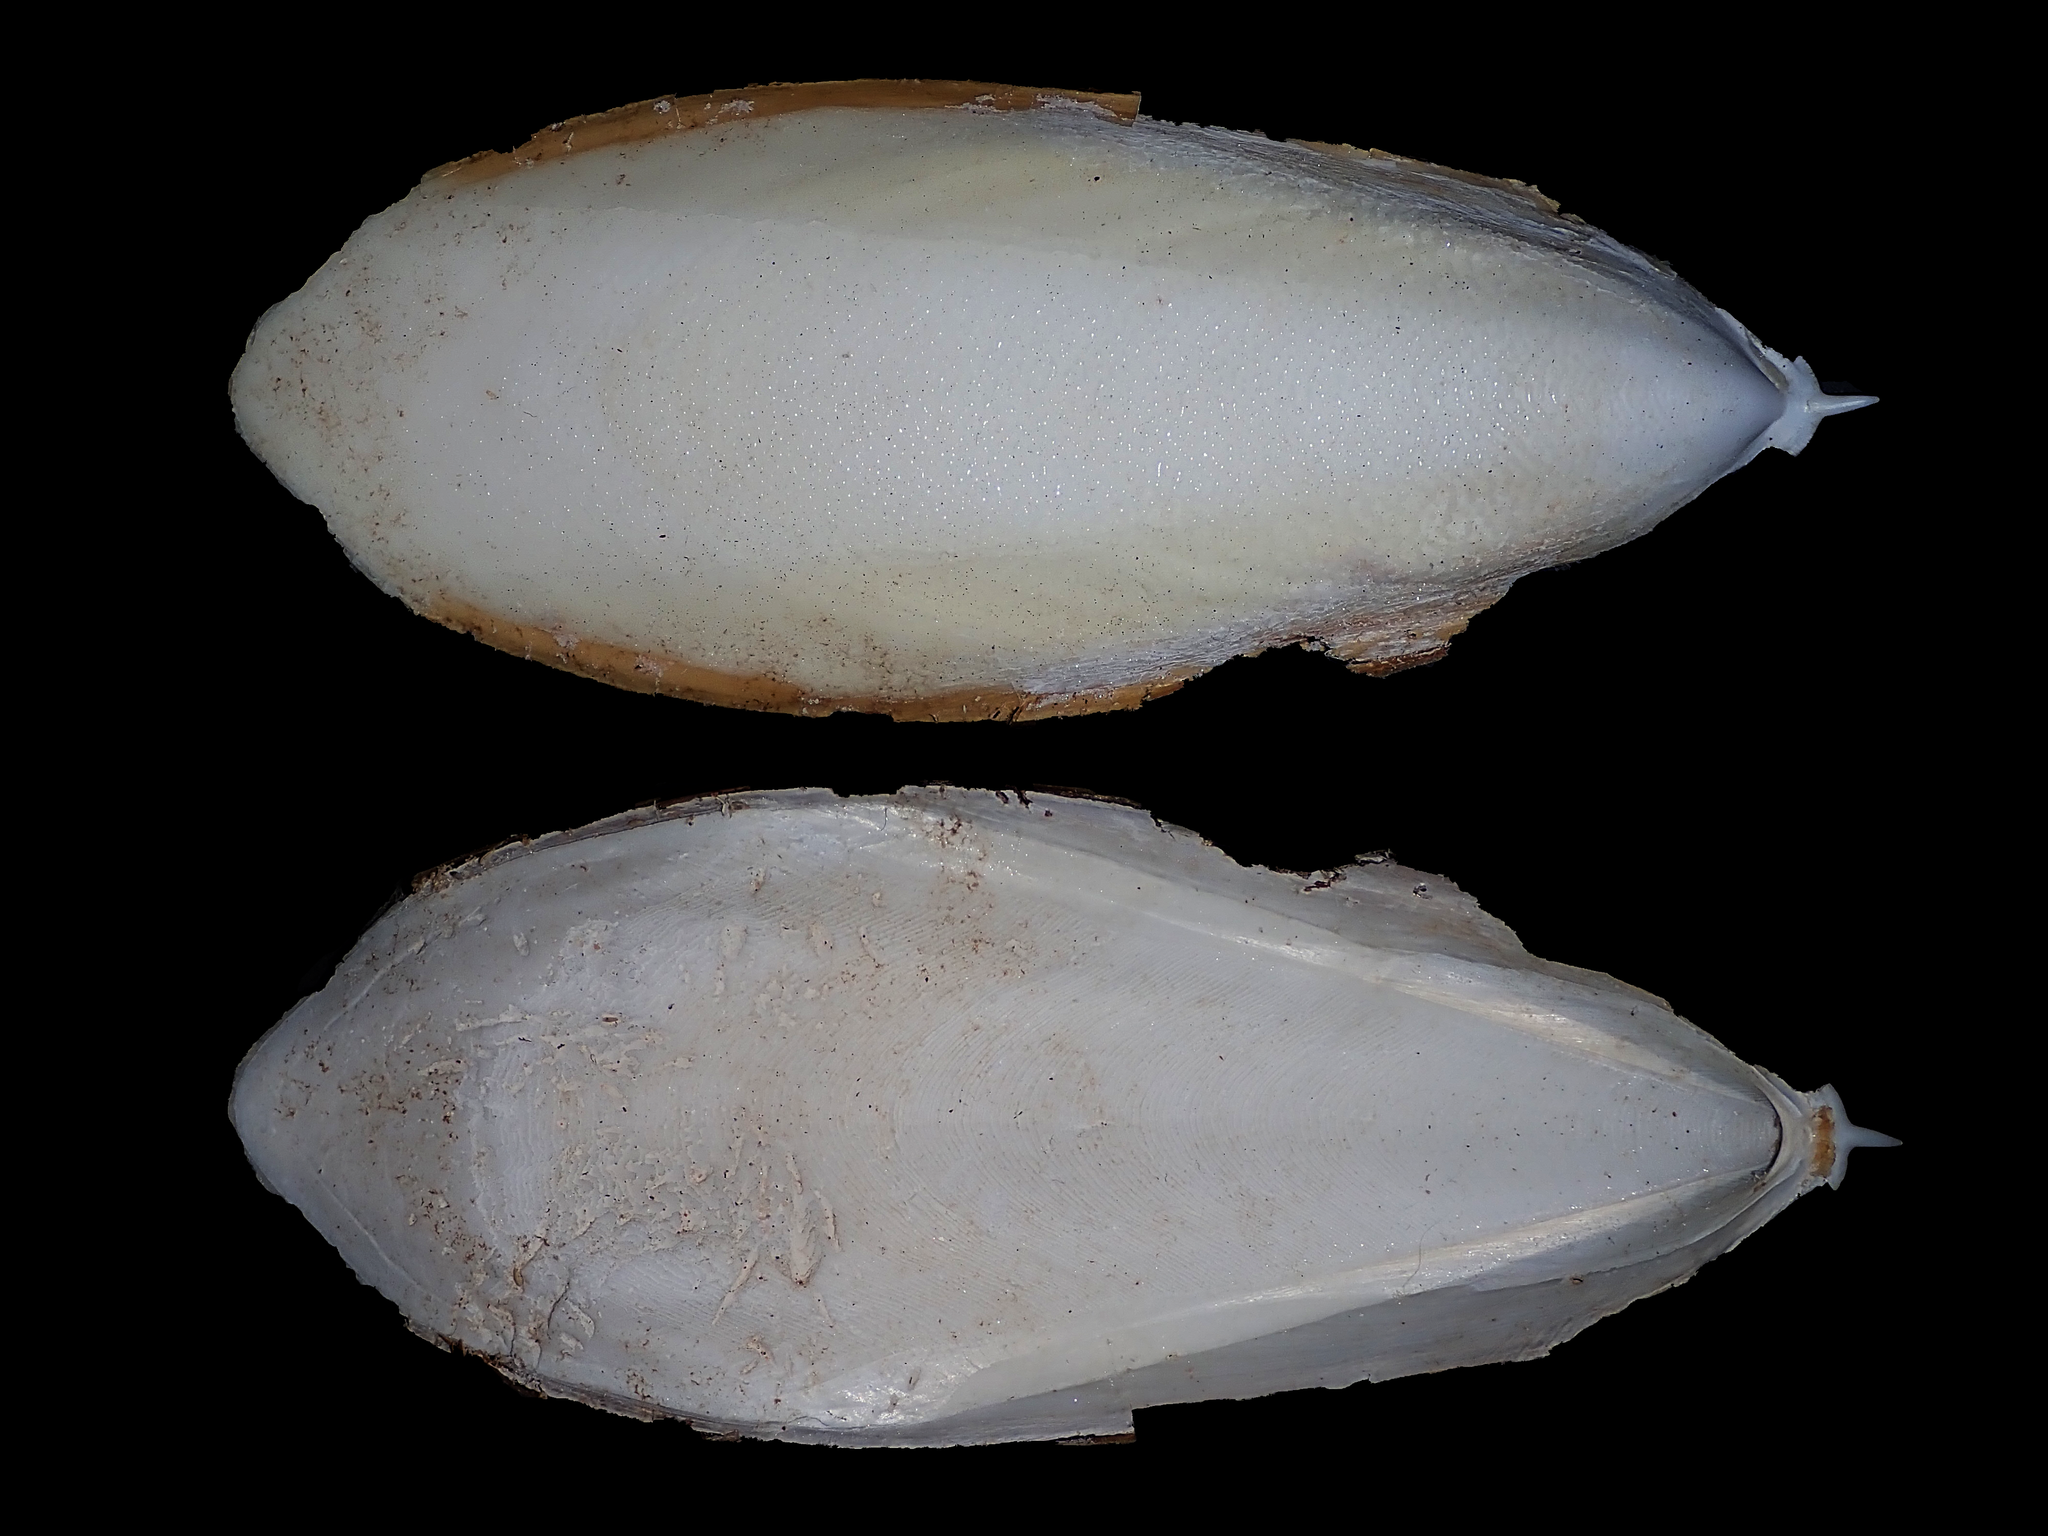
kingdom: Animalia
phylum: Mollusca
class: Cephalopoda
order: Sepiida
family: Sepiidae
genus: Sepia
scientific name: Sepia whitleyana
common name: Whitley’s cuttlefish
